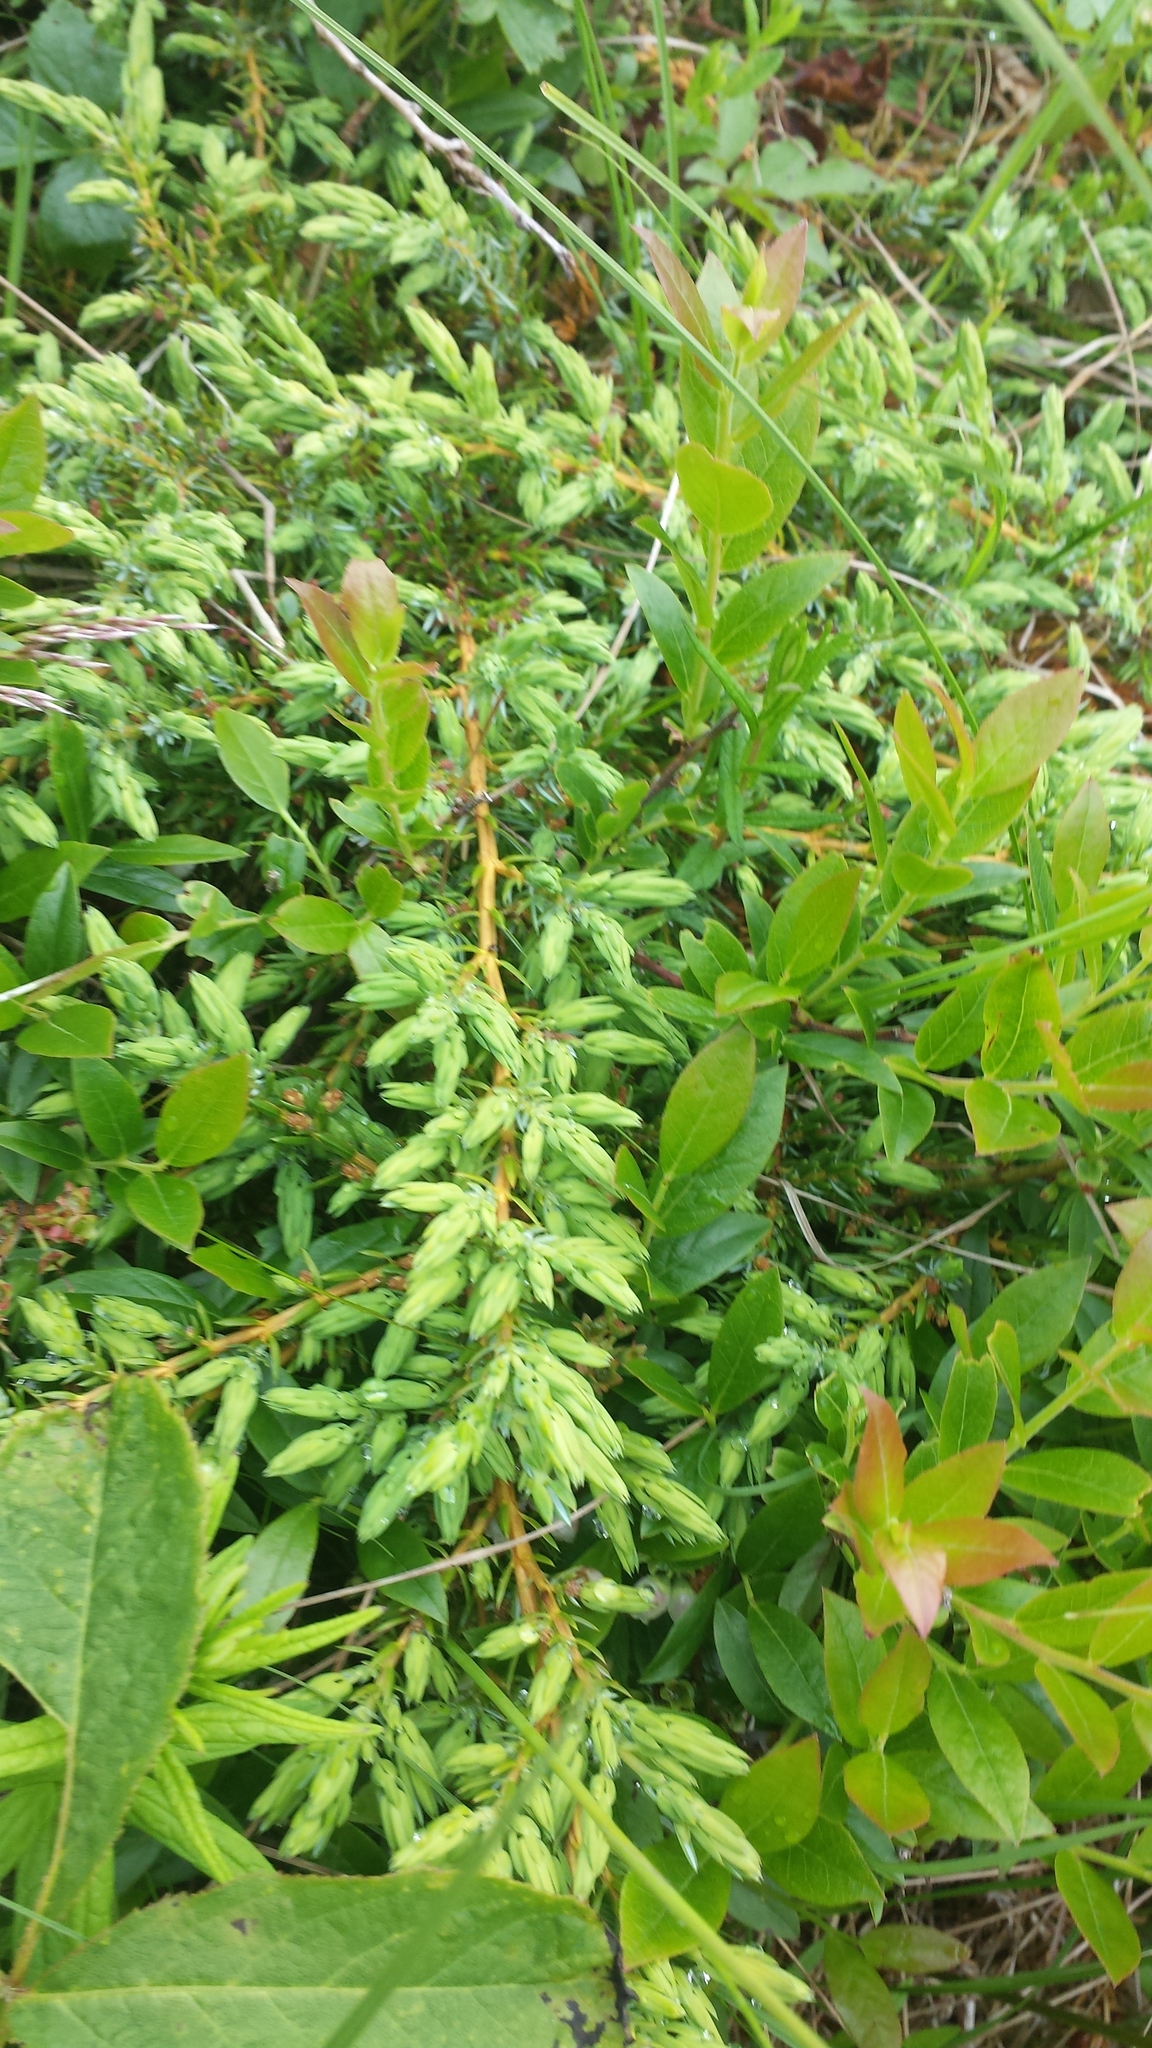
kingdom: Plantae
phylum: Tracheophyta
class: Pinopsida
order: Pinales
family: Cupressaceae
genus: Juniperus
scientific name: Juniperus communis
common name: Common juniper
